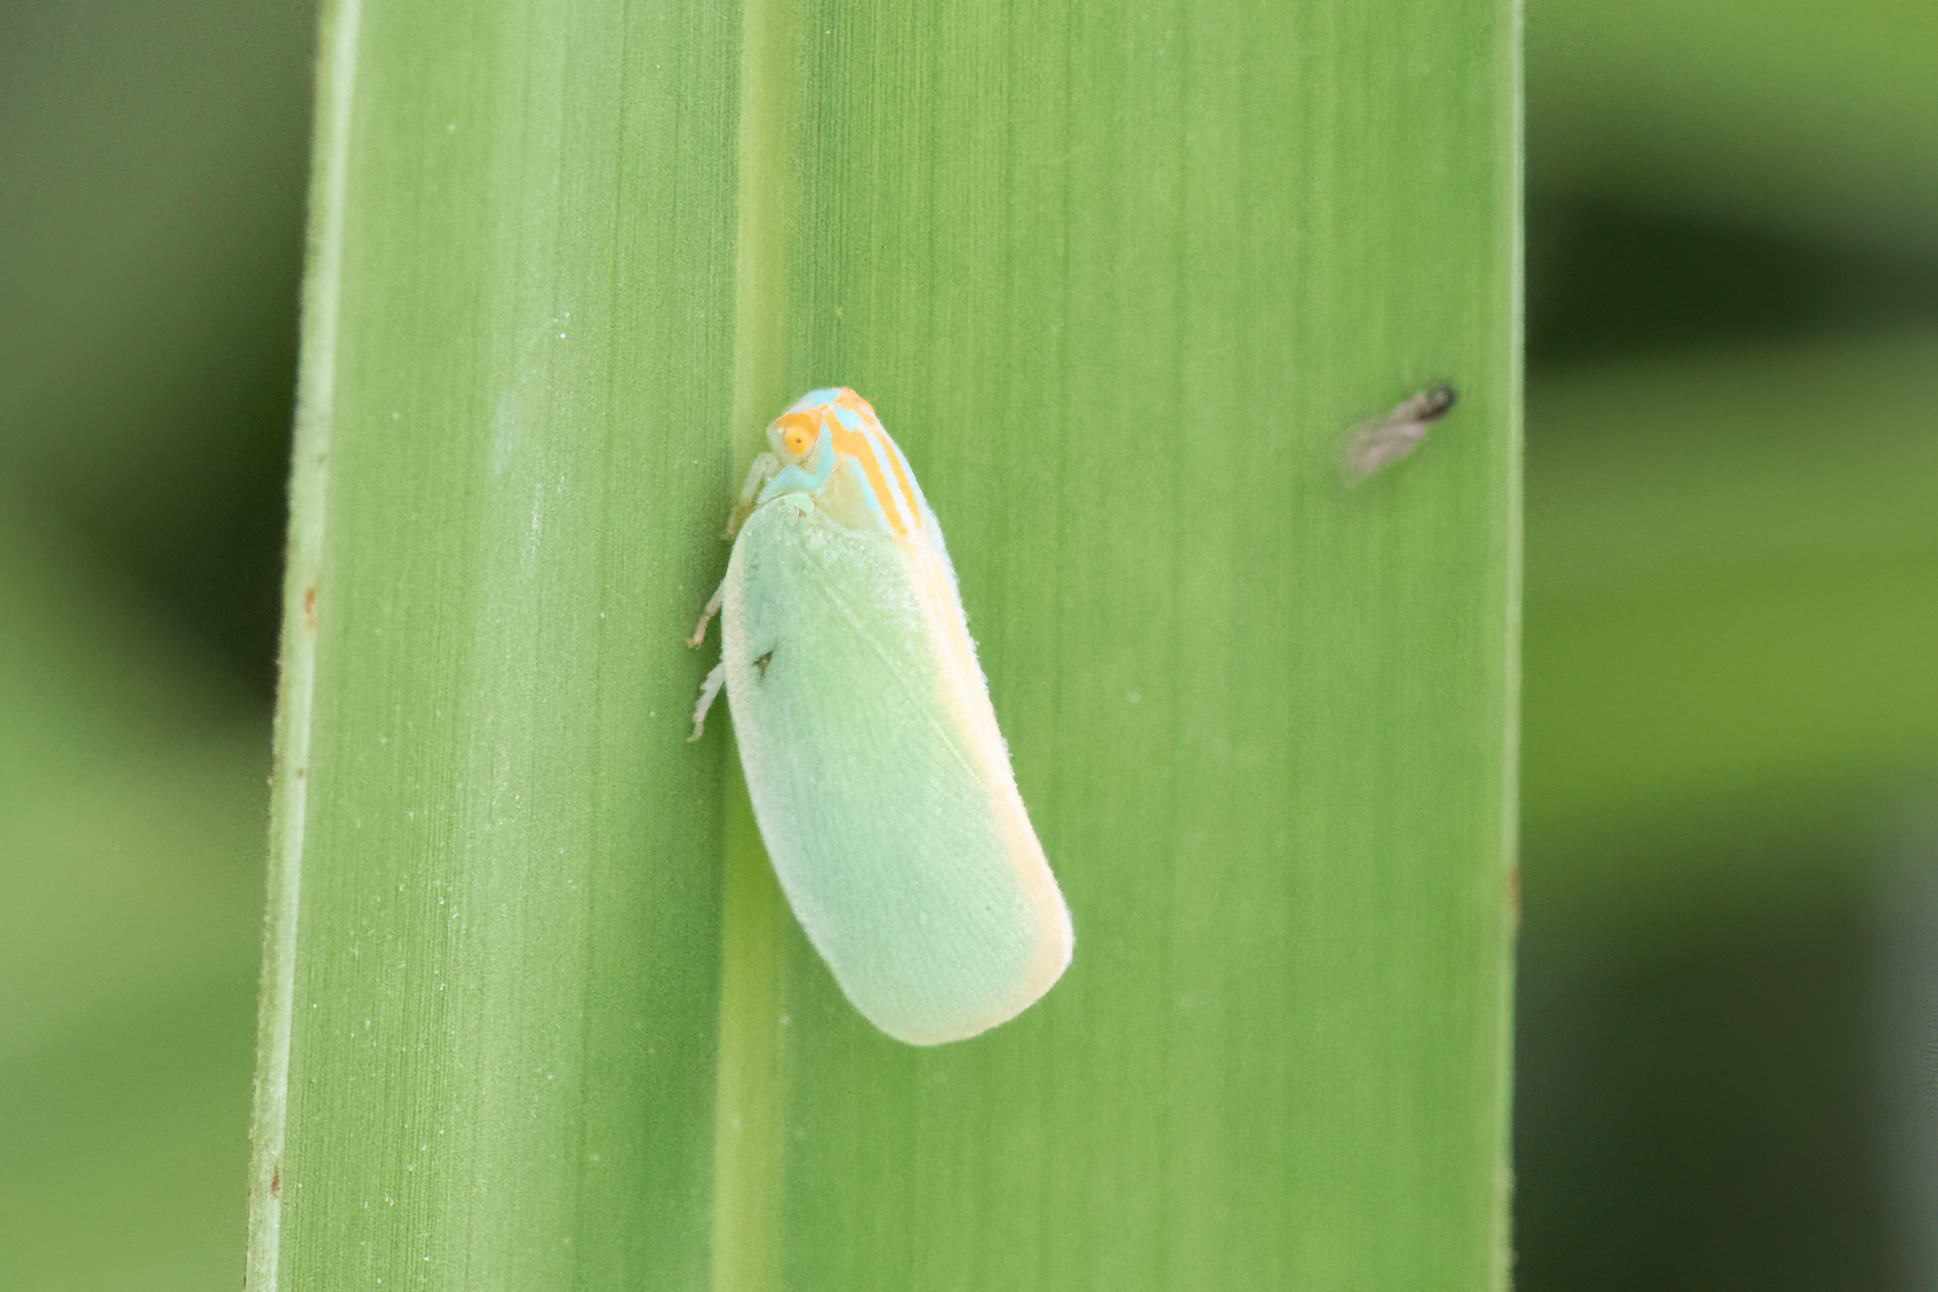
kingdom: Animalia
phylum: Arthropoda
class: Insecta
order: Hemiptera
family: Flatidae
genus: Ormenaria
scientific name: Ormenaria rufifascia
